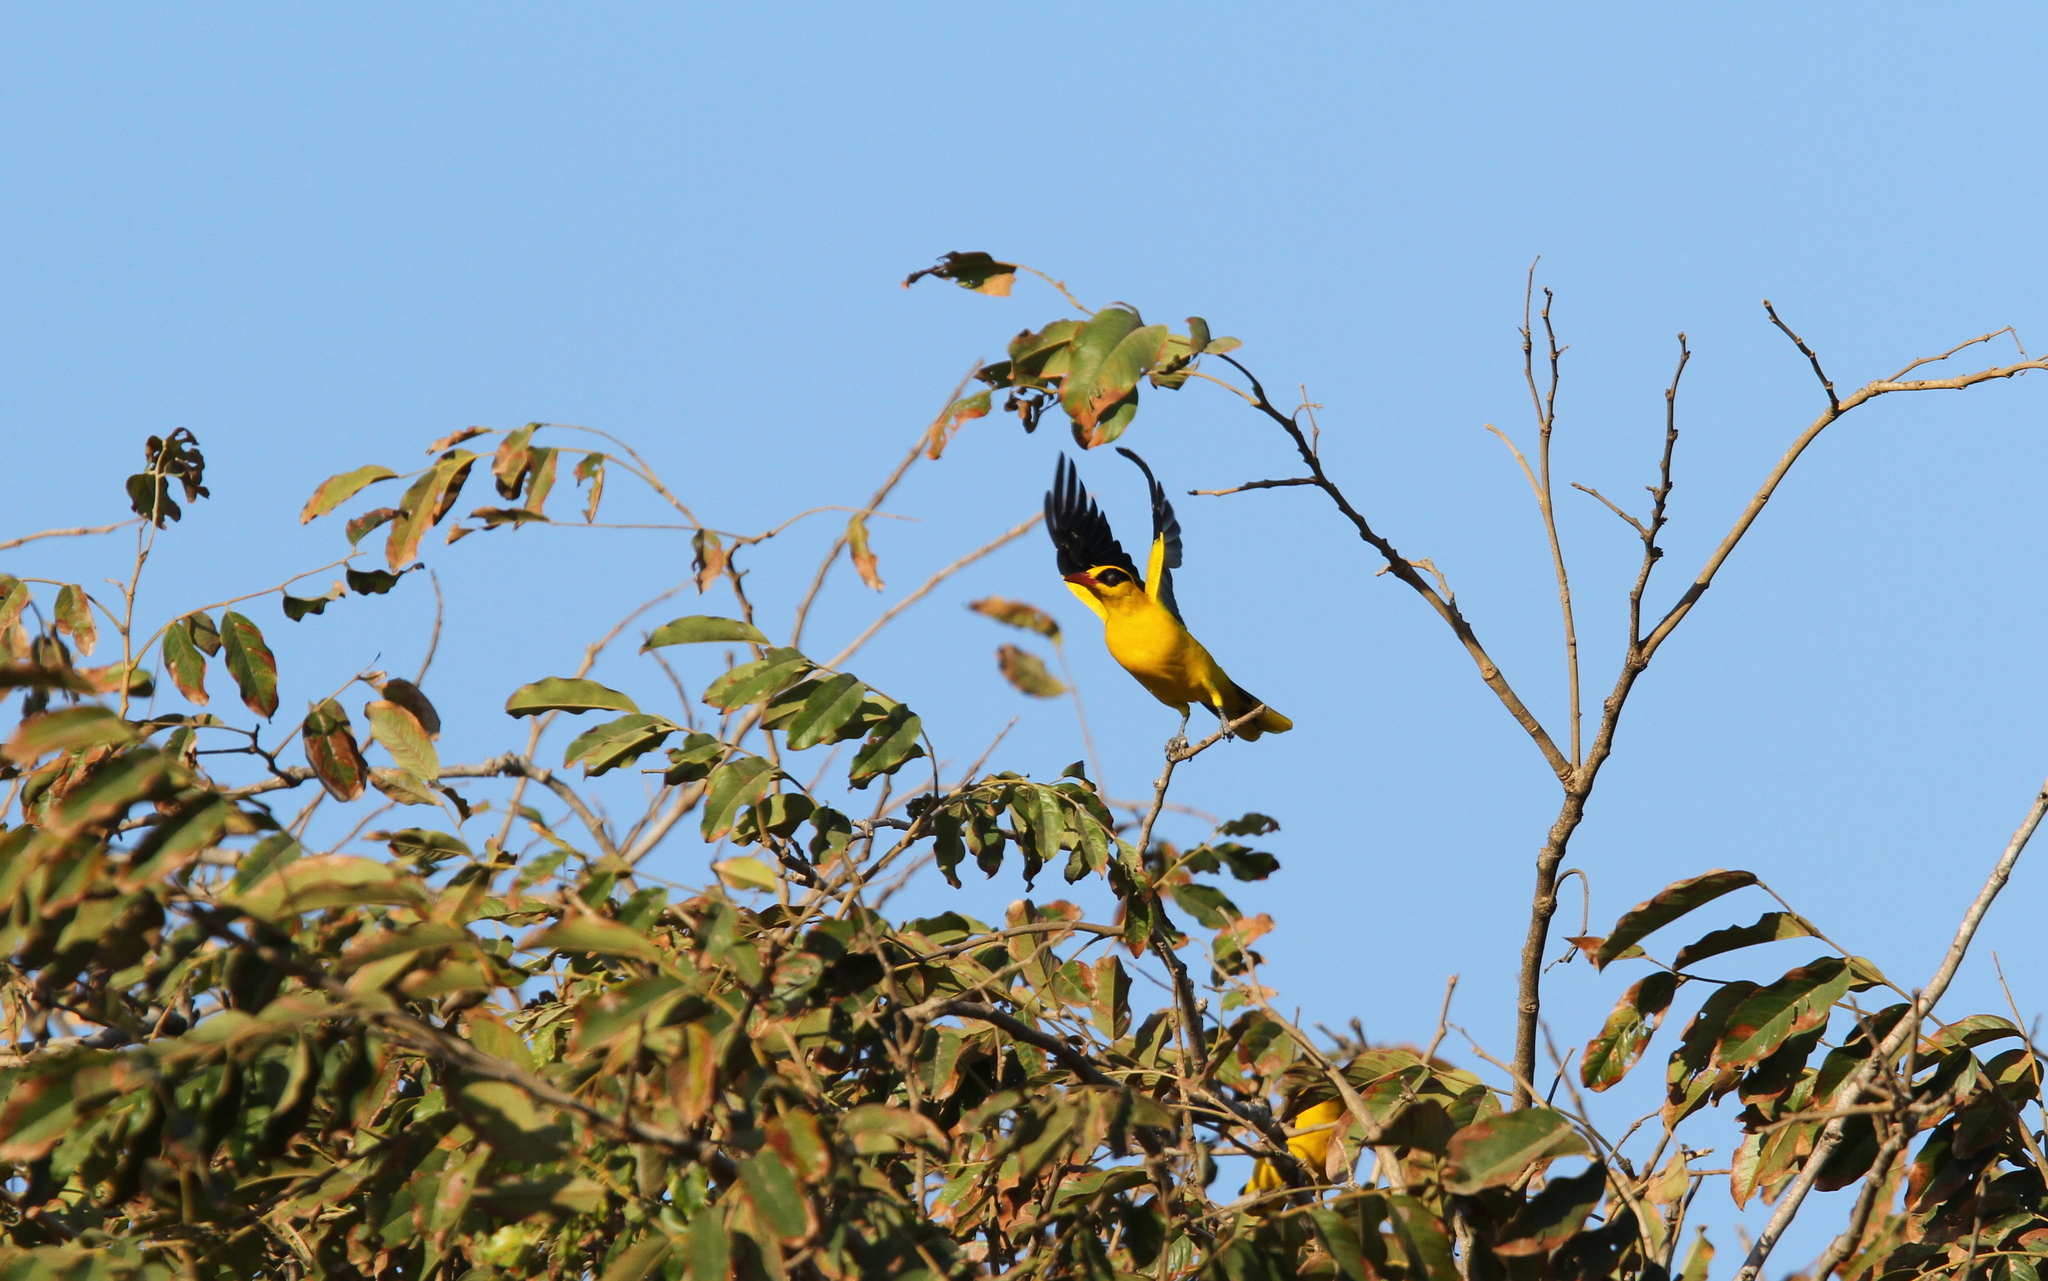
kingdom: Animalia
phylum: Chordata
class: Aves
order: Passeriformes
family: Oriolidae
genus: Oriolus
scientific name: Oriolus auratus
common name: African golden oriole
